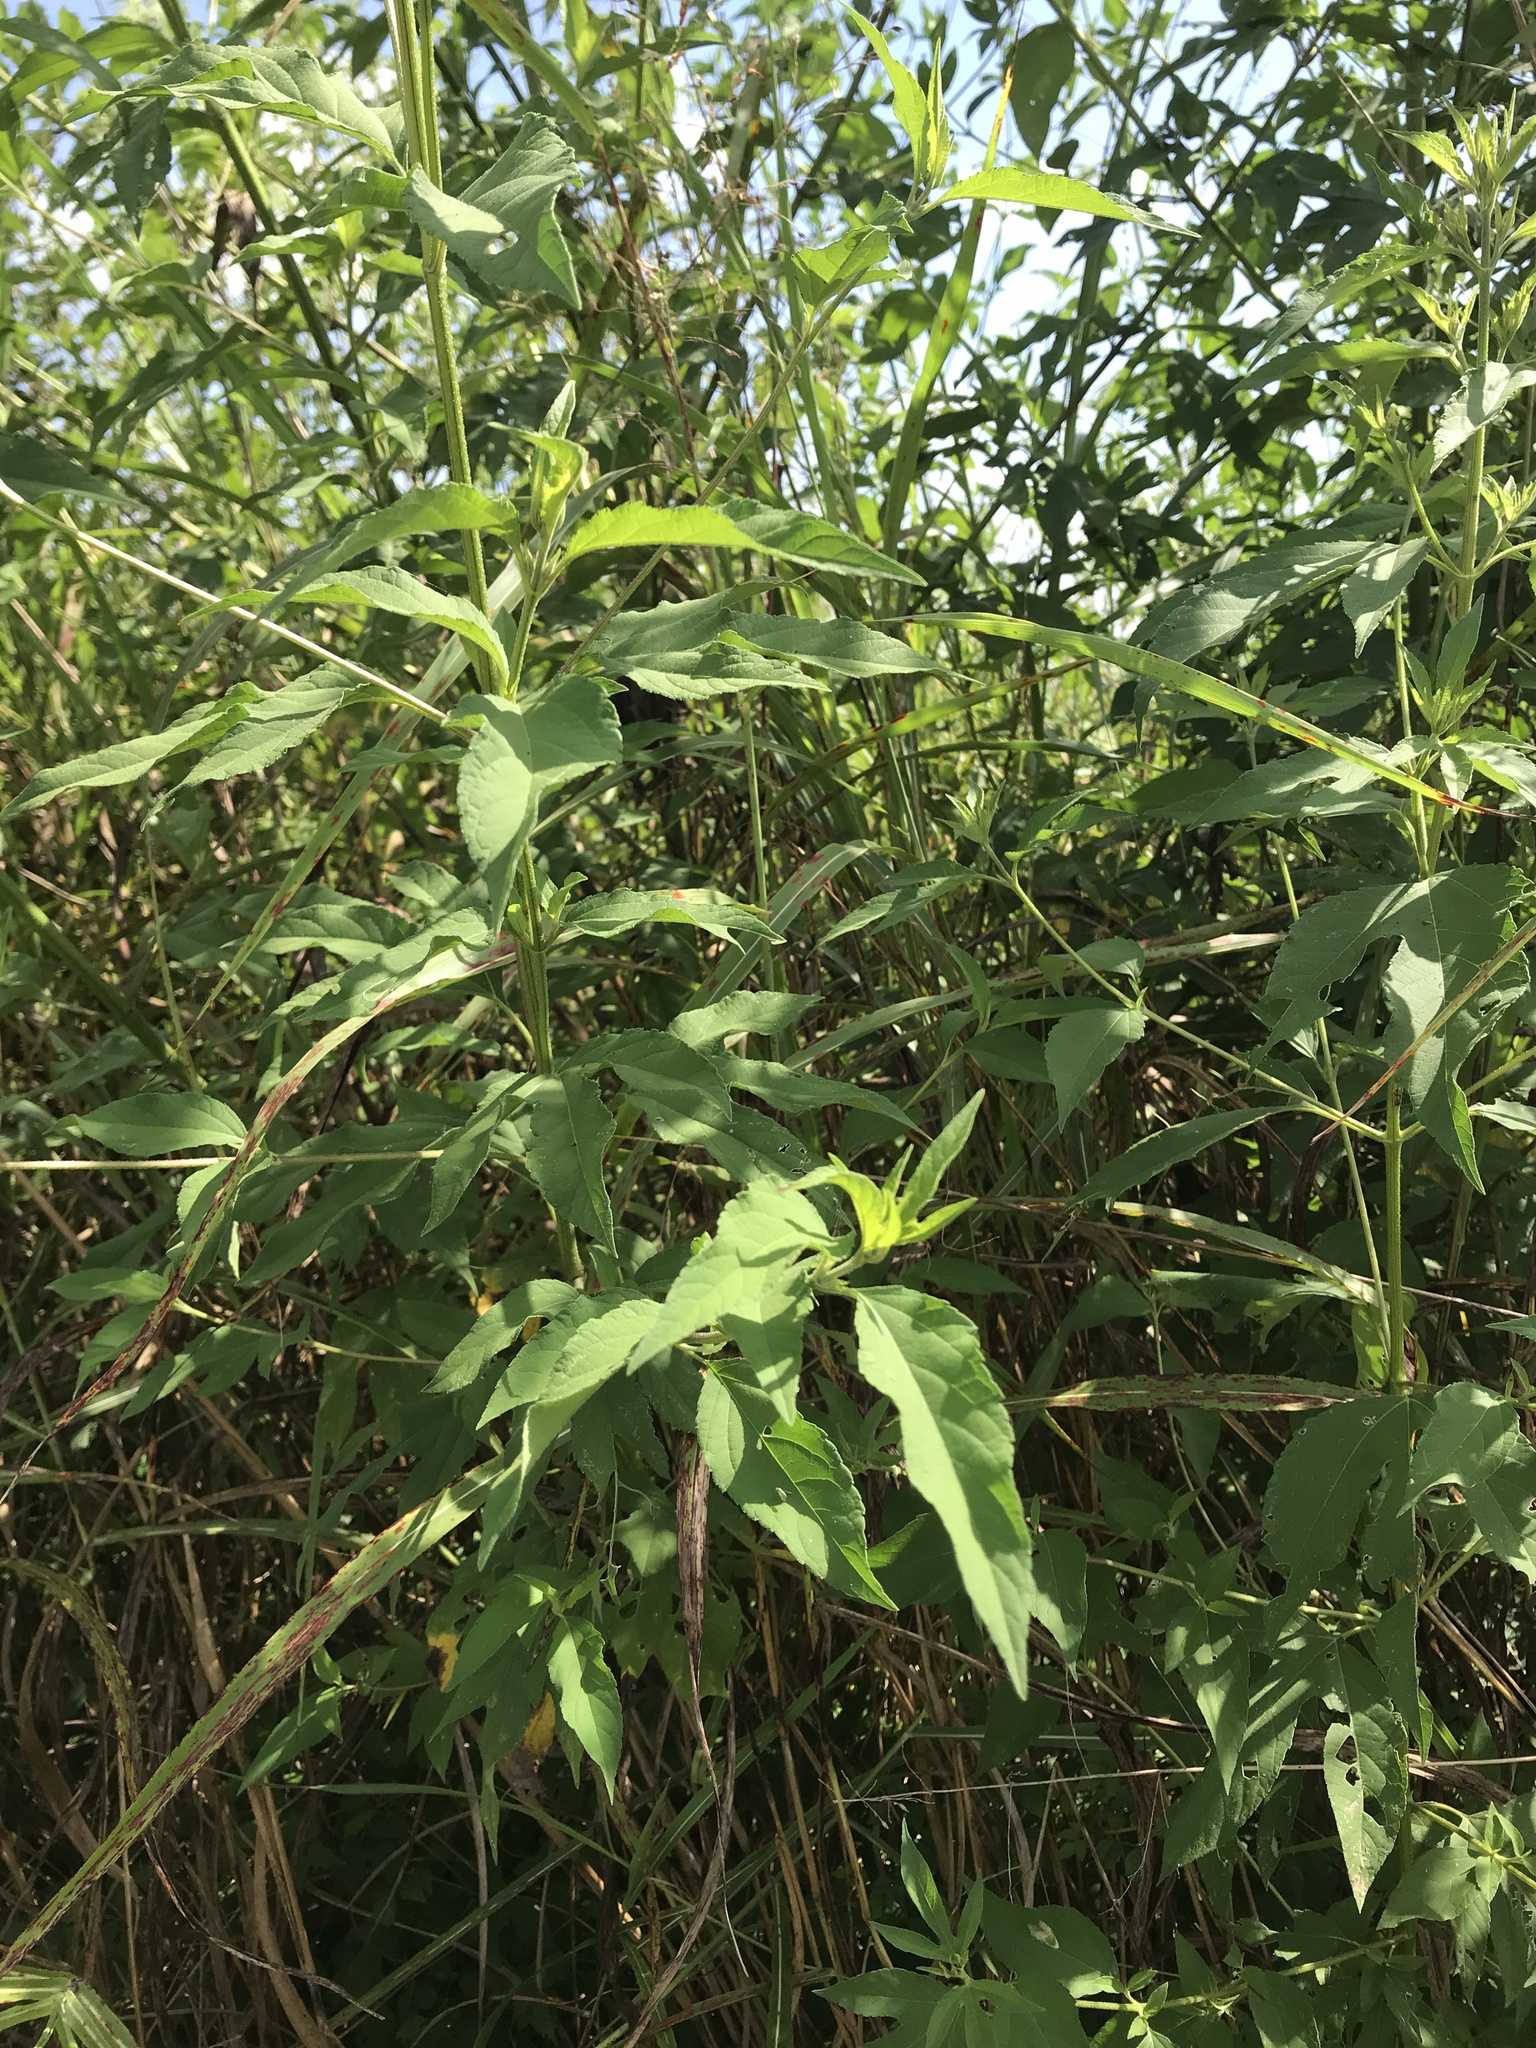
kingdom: Plantae
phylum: Tracheophyta
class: Magnoliopsida
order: Asterales
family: Asteraceae
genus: Ambrosia
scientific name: Ambrosia trifida
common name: Giant ragweed
